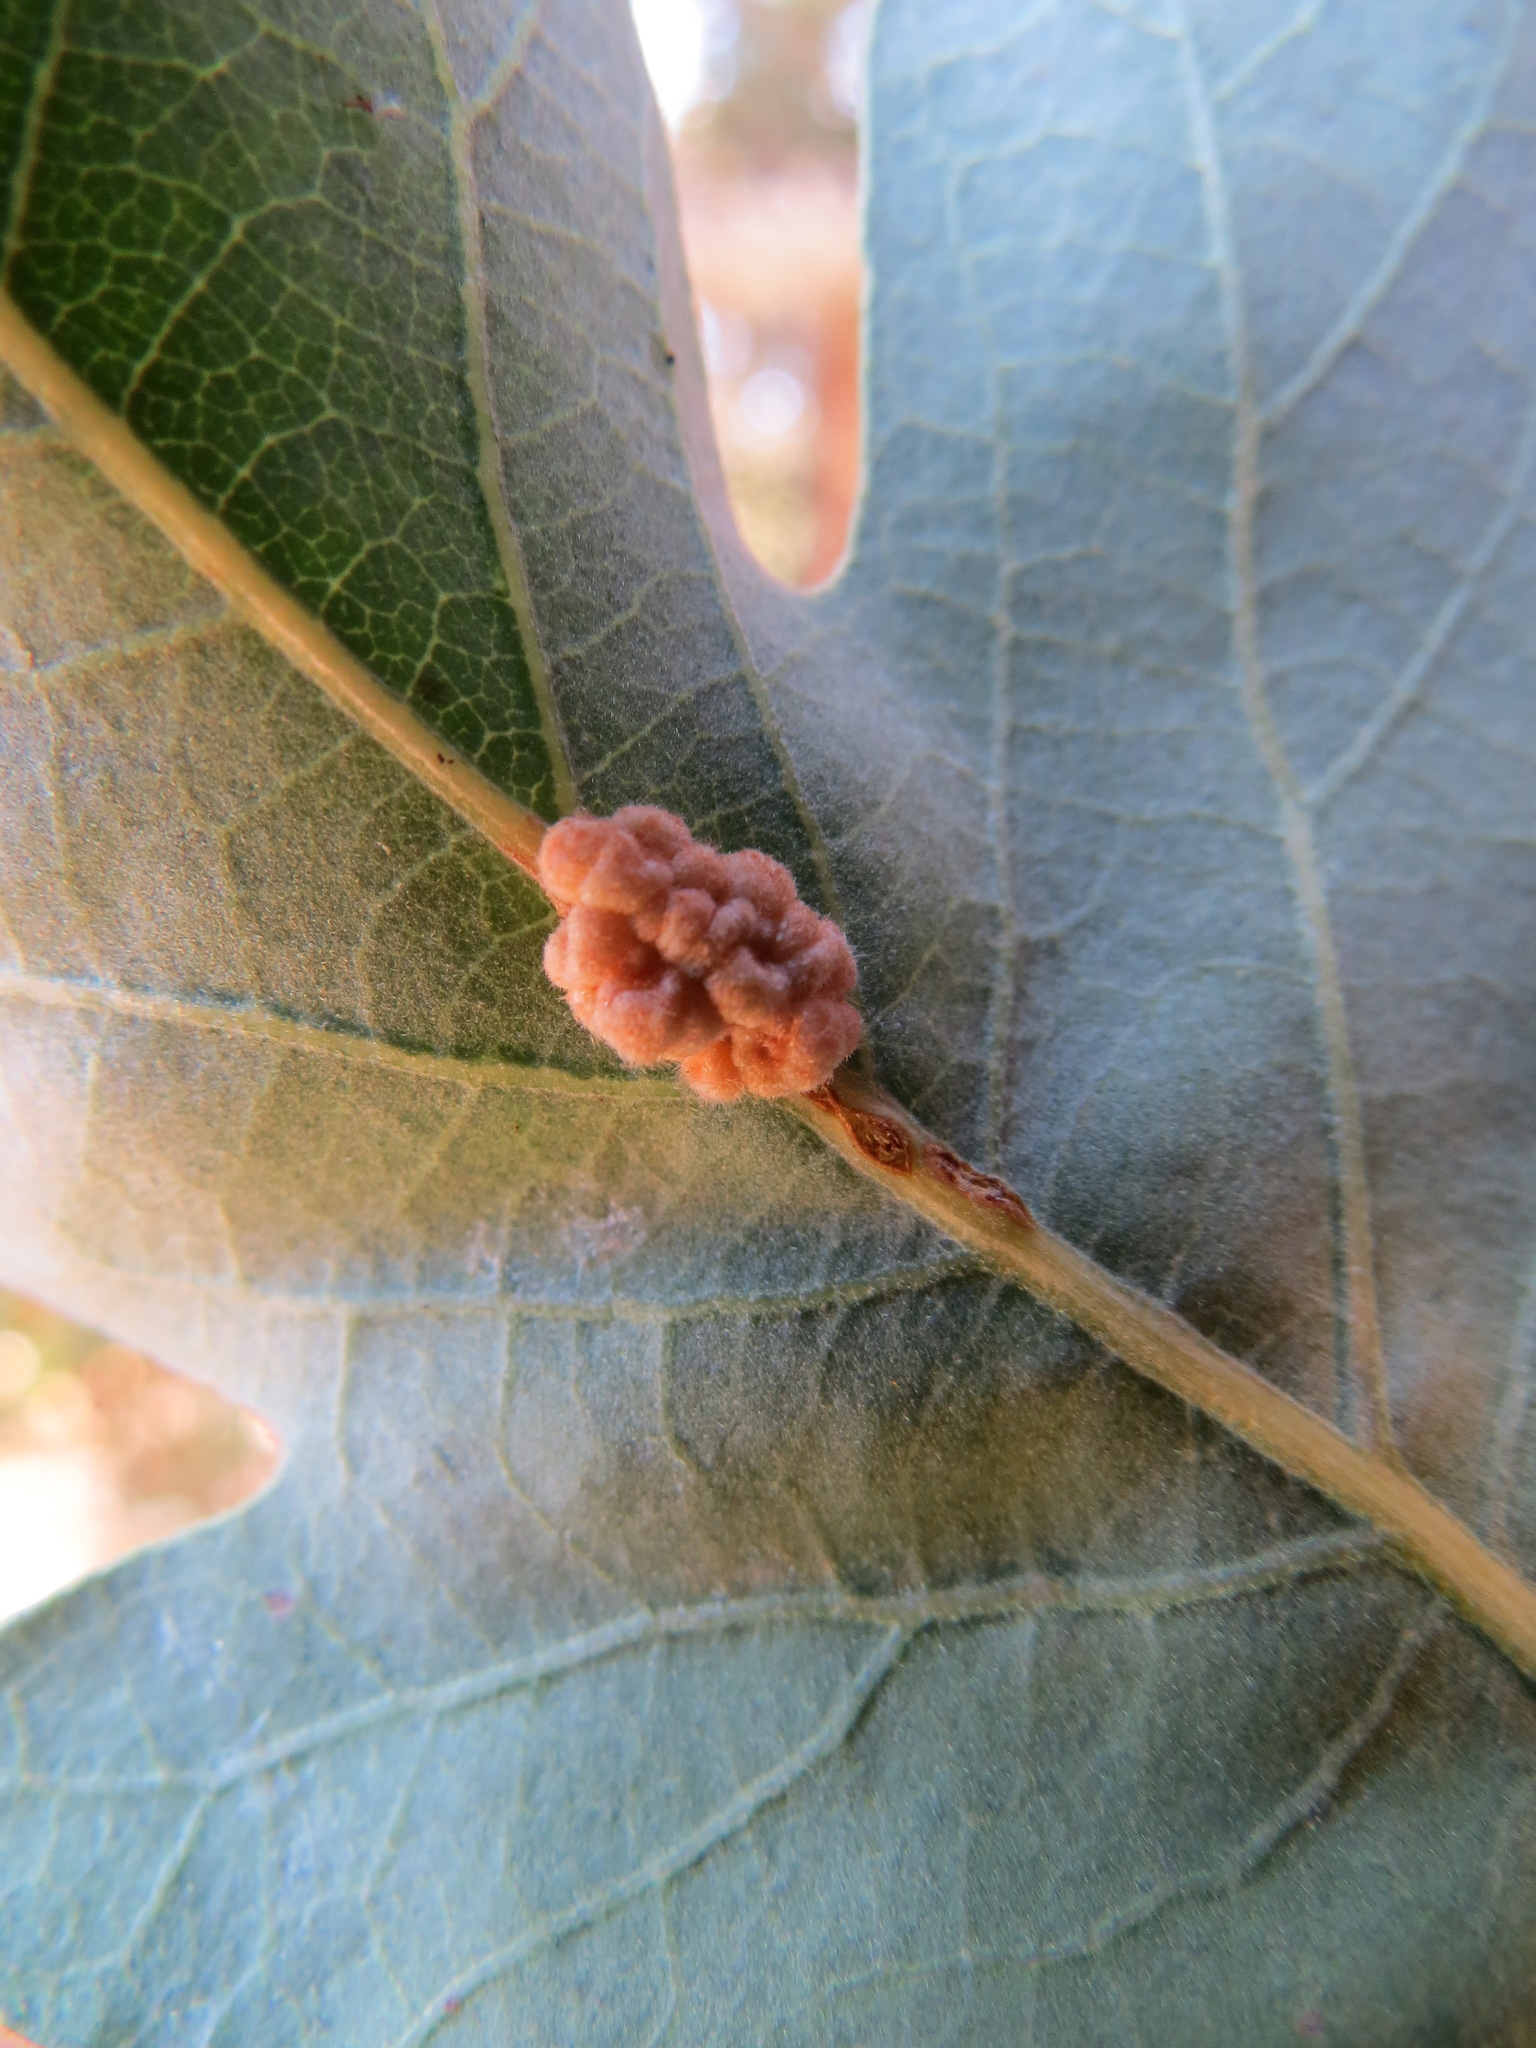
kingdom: Animalia
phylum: Arthropoda
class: Insecta
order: Hymenoptera
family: Cynipidae
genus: Andricus
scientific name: Andricus
